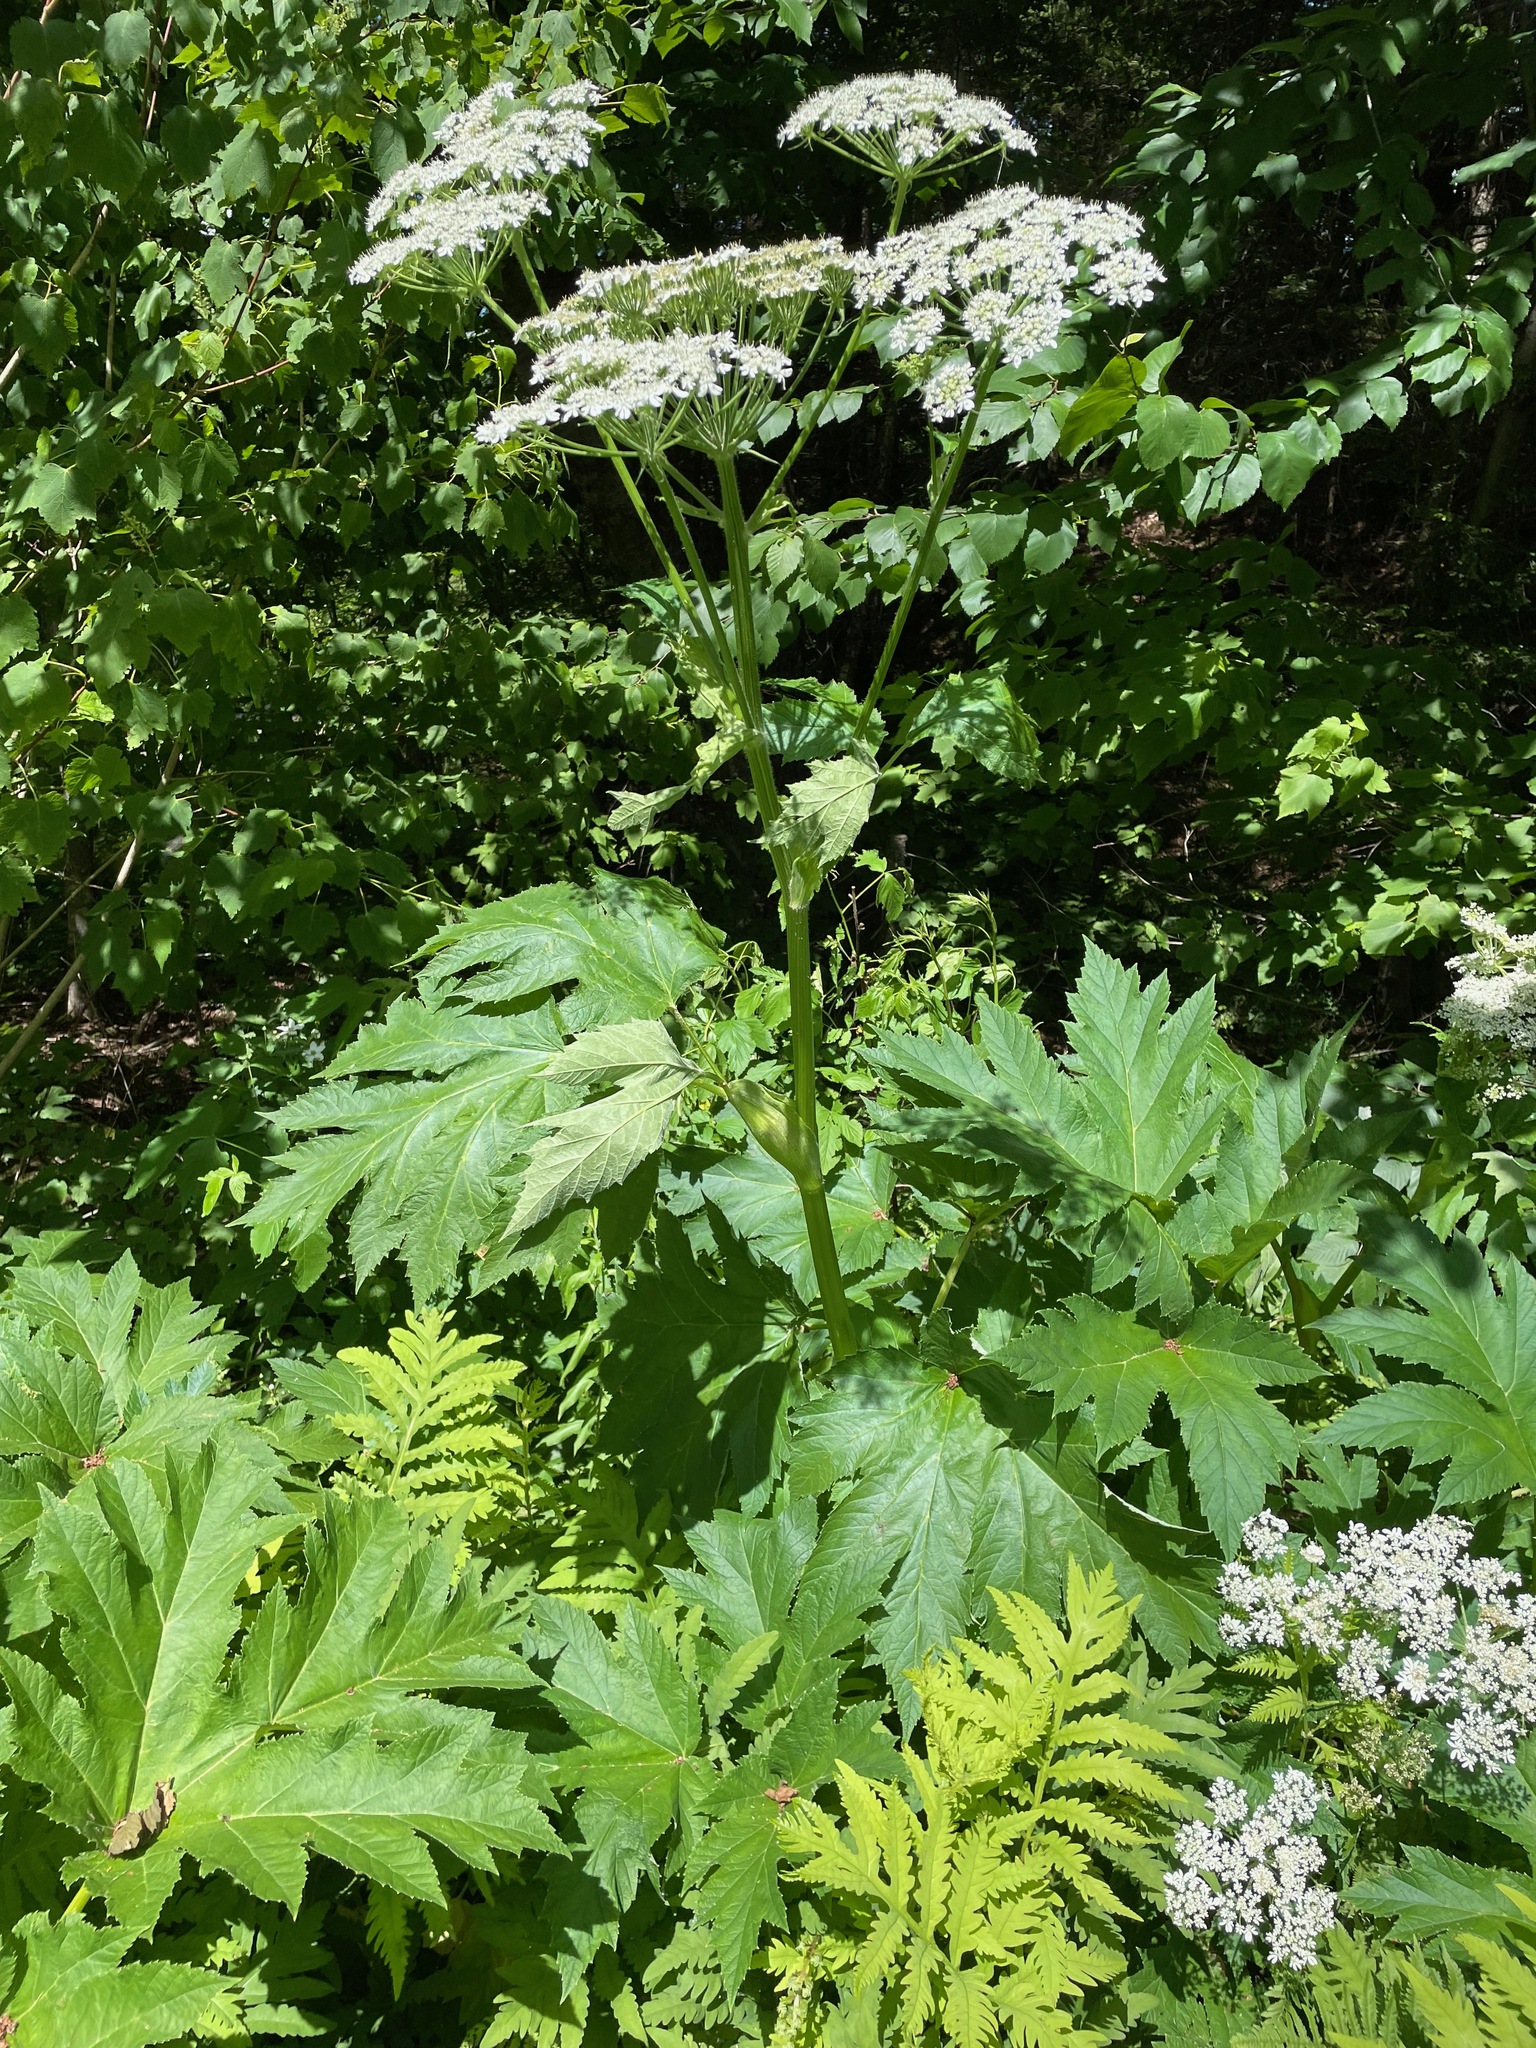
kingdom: Plantae
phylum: Tracheophyta
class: Magnoliopsida
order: Apiales
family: Apiaceae
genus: Heracleum
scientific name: Heracleum maximum
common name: American cow parsnip
